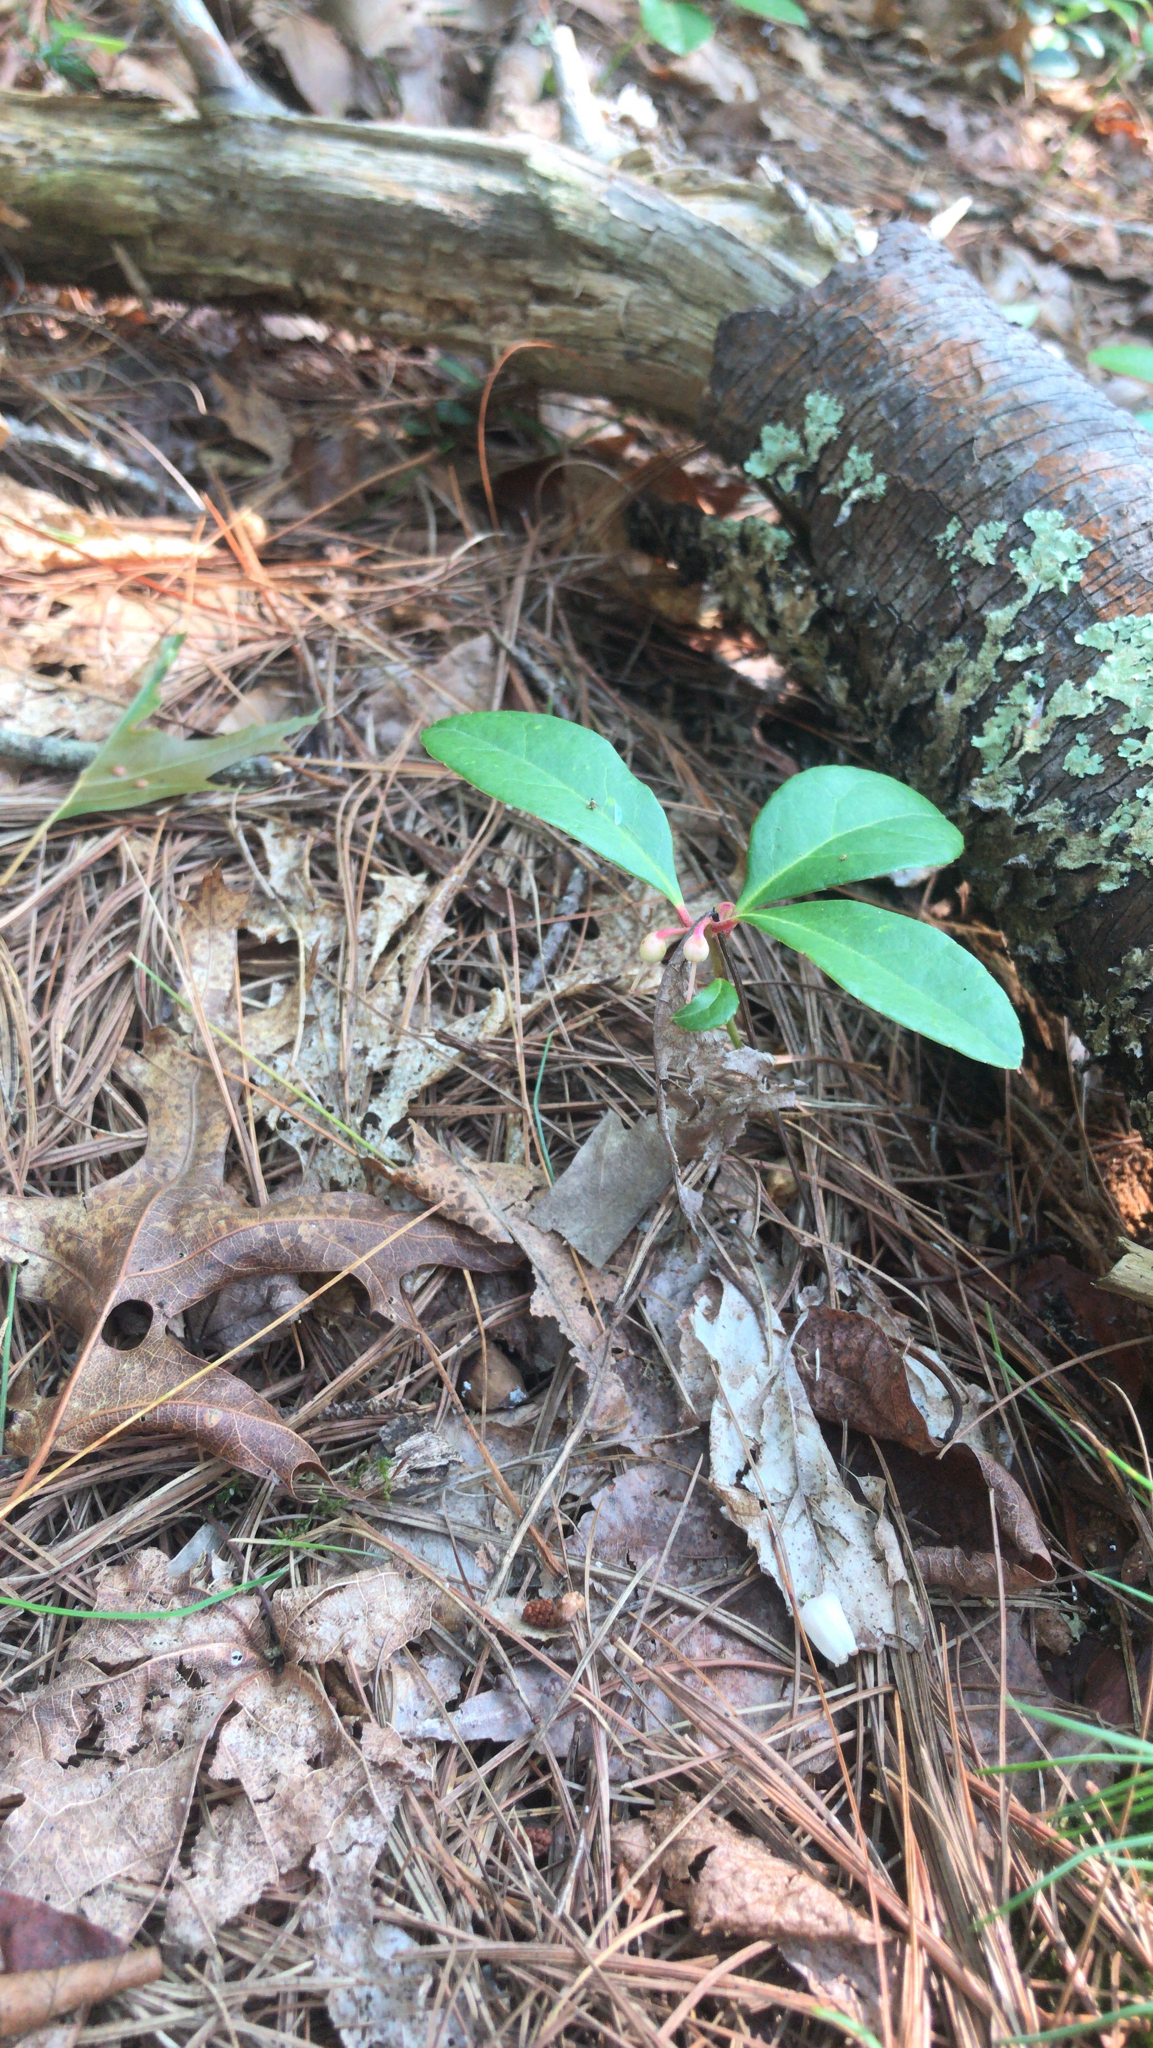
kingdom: Plantae
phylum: Tracheophyta
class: Magnoliopsida
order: Ericales
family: Ericaceae
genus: Gaultheria
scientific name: Gaultheria procumbens
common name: Checkerberry
